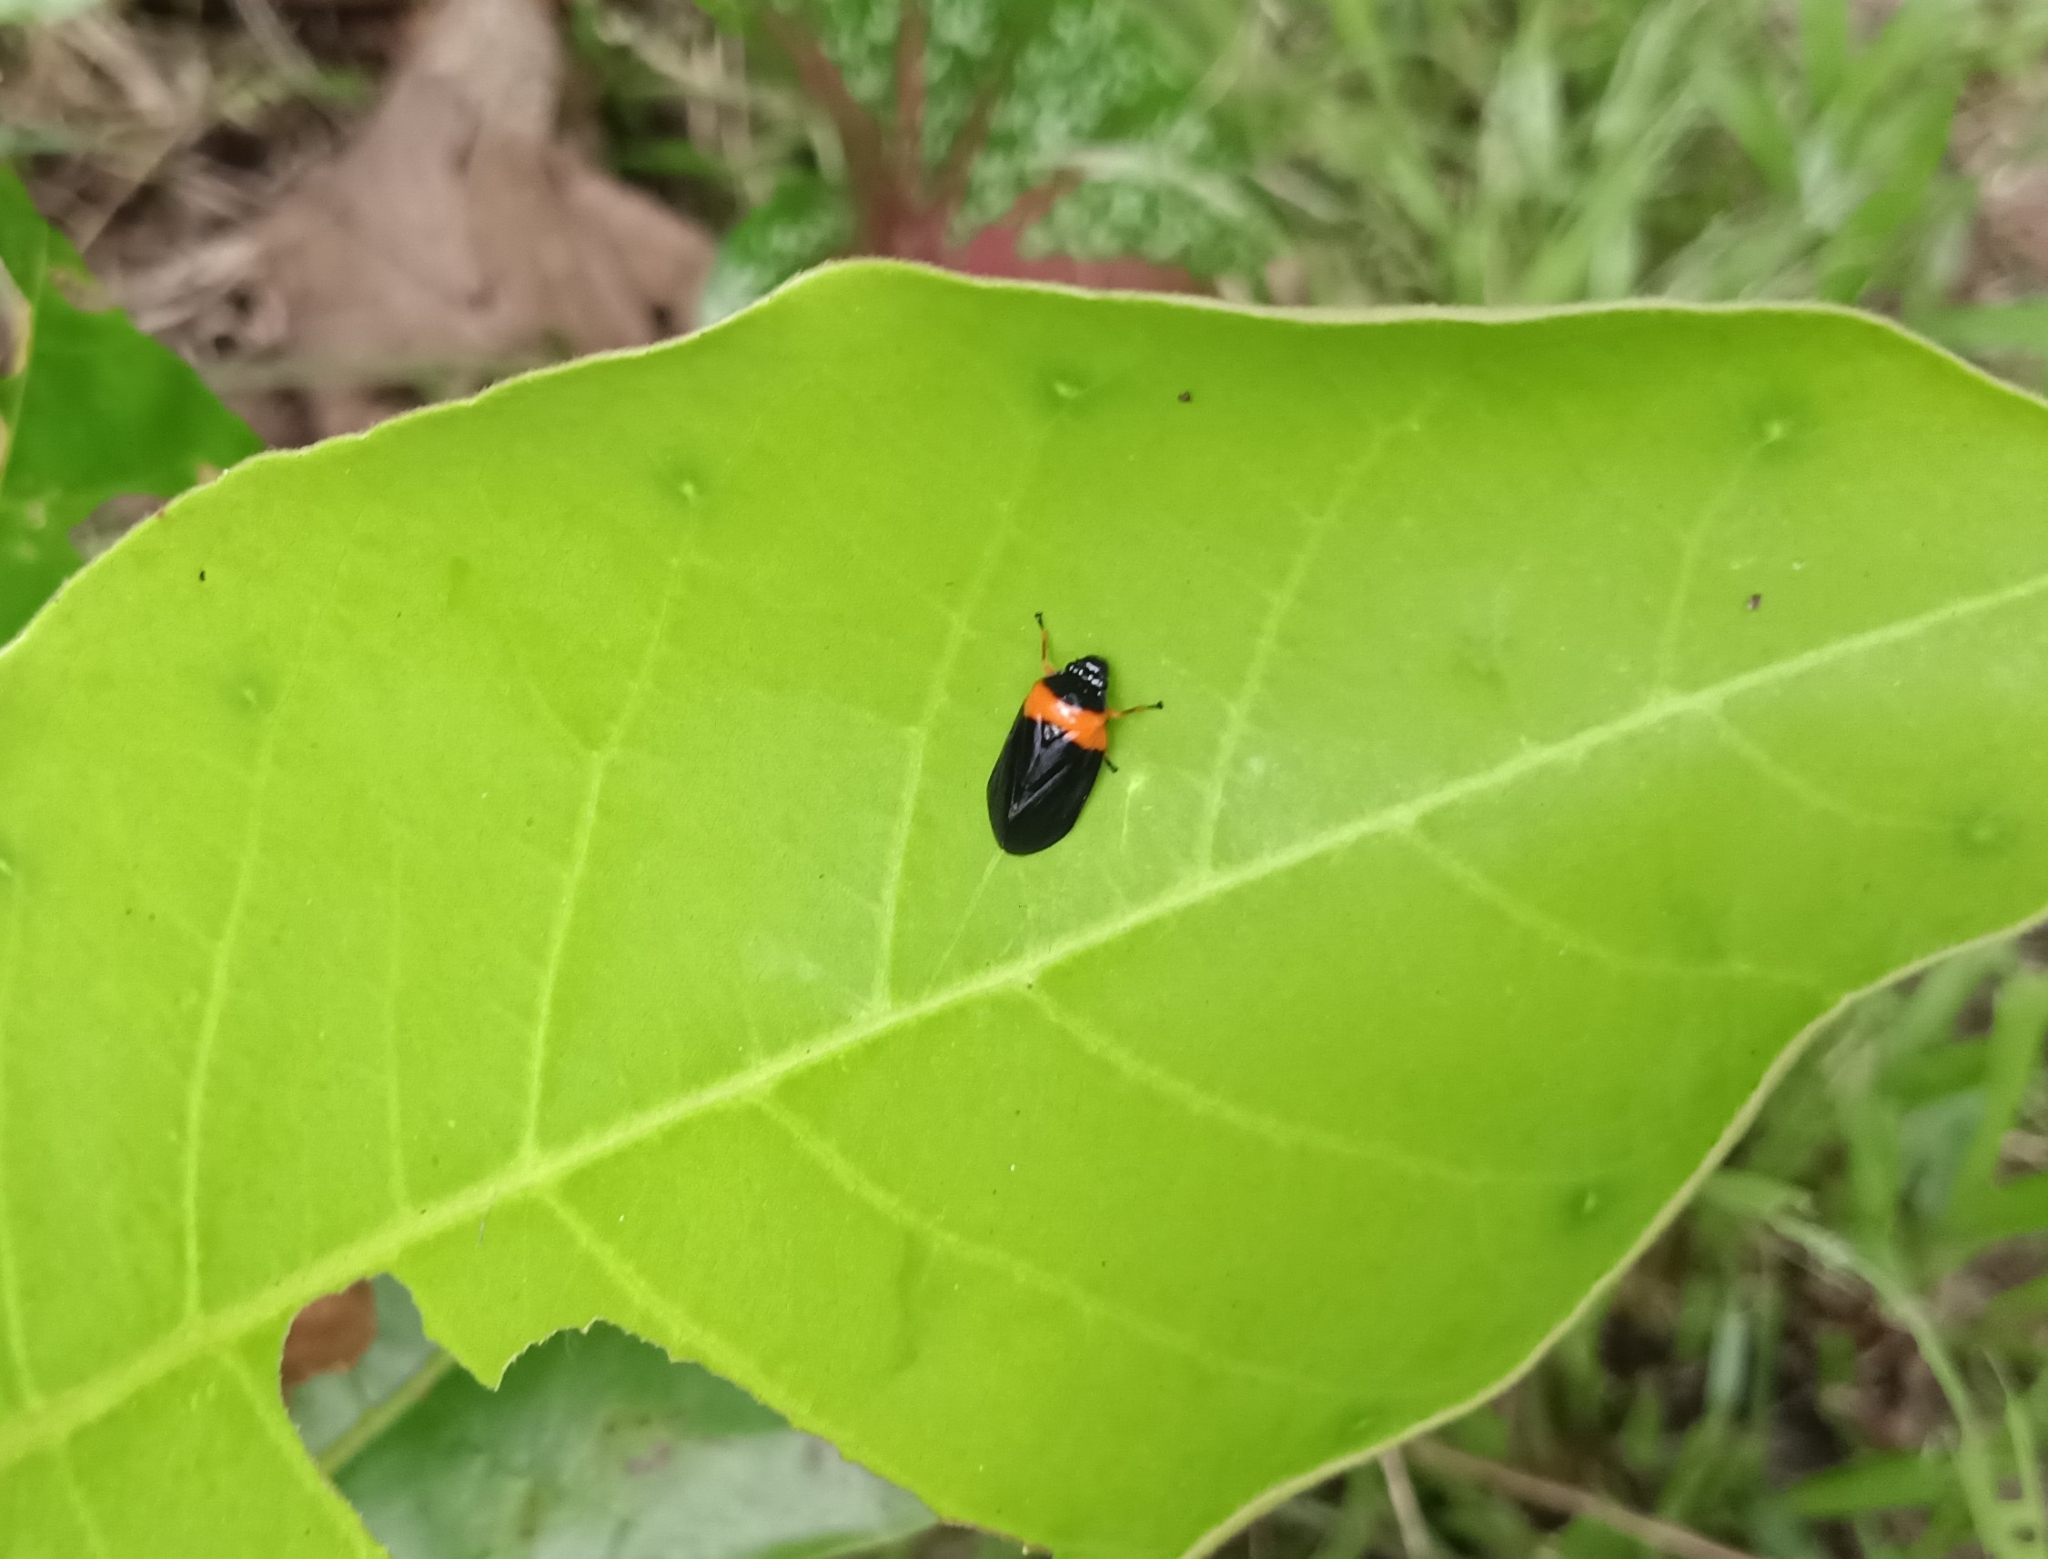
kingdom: Animalia
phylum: Arthropoda
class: Insecta
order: Hemiptera
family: Cercopidae
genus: Phymatostetha
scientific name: Phymatostetha deschampsi
